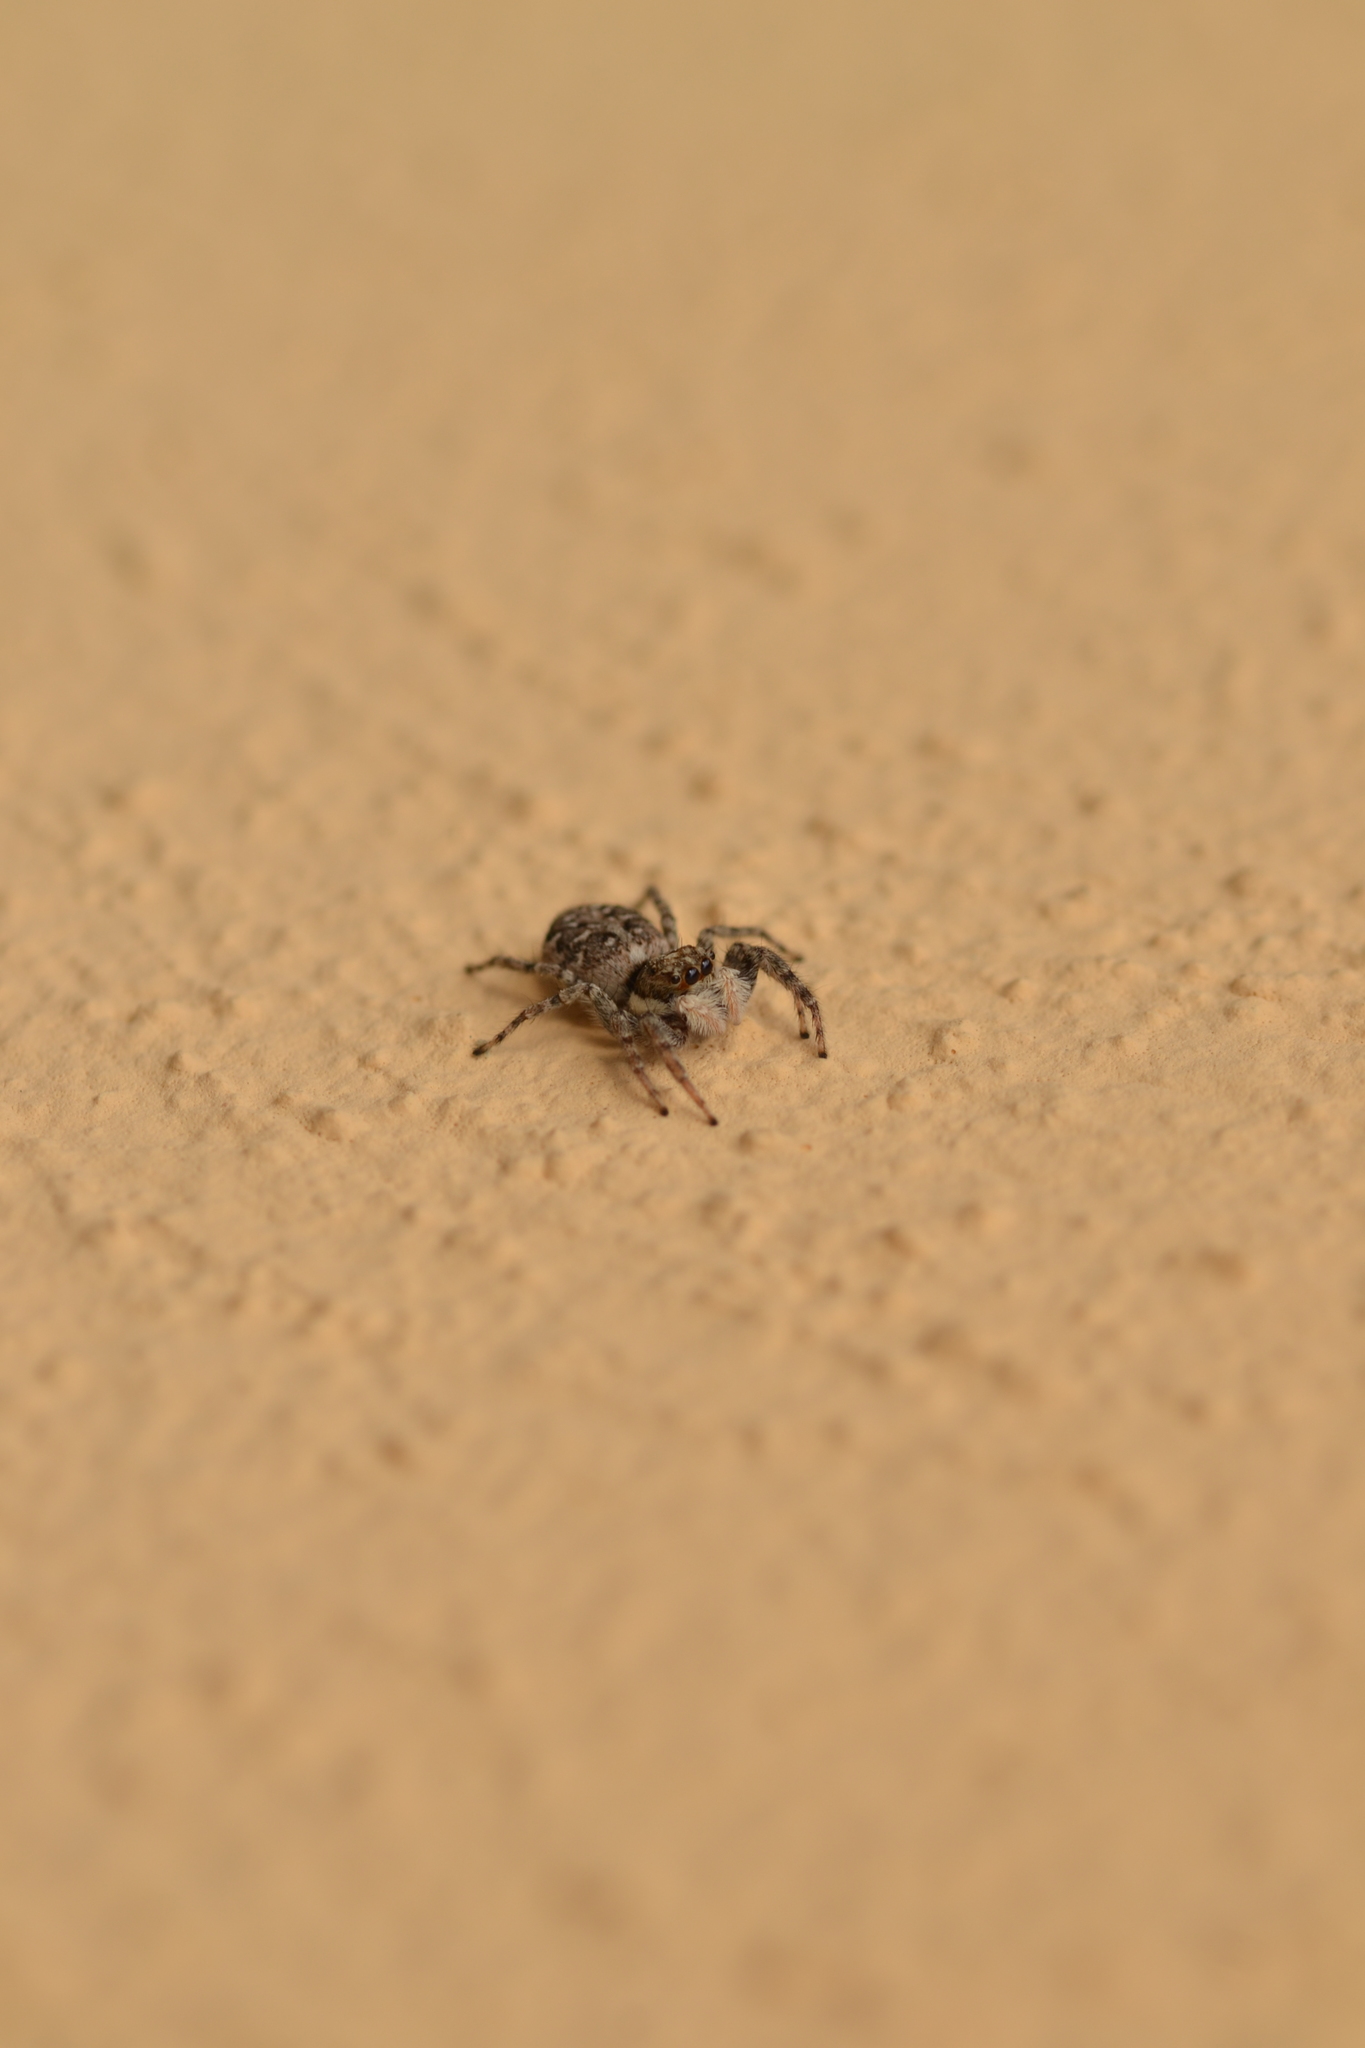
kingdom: Animalia
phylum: Arthropoda
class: Arachnida
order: Araneae
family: Salticidae
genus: Menemerus
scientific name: Menemerus semilimbatus
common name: Jumping spider
